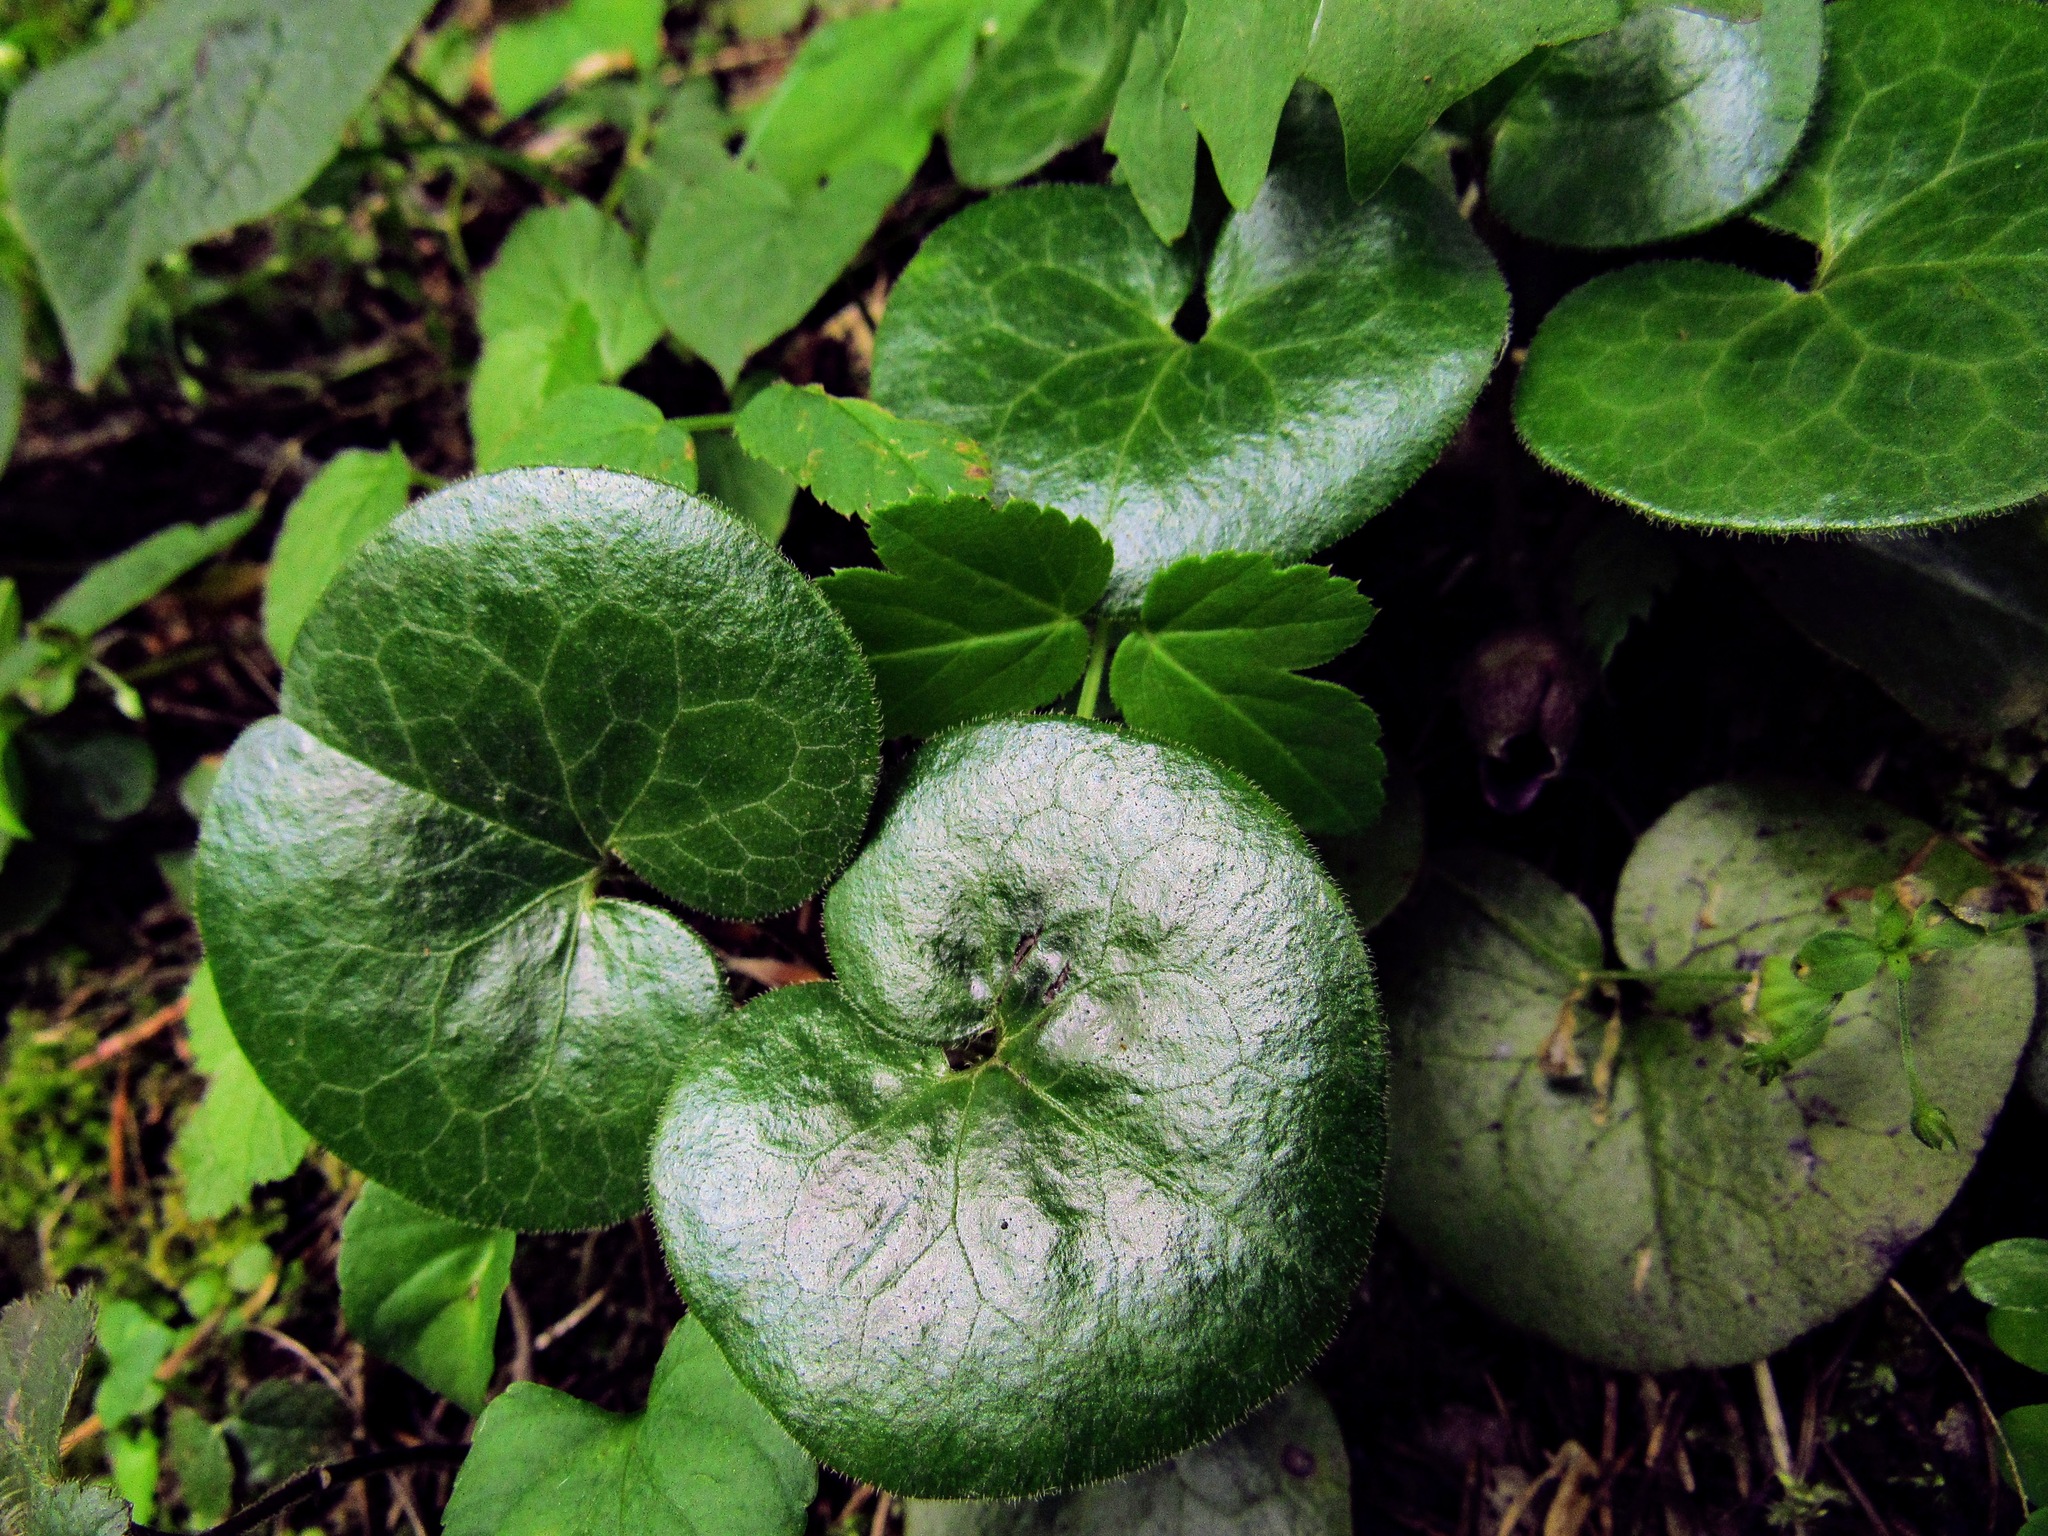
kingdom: Plantae
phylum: Tracheophyta
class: Magnoliopsida
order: Piperales
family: Aristolochiaceae
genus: Asarum
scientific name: Asarum europaeum
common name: Asarabacca
